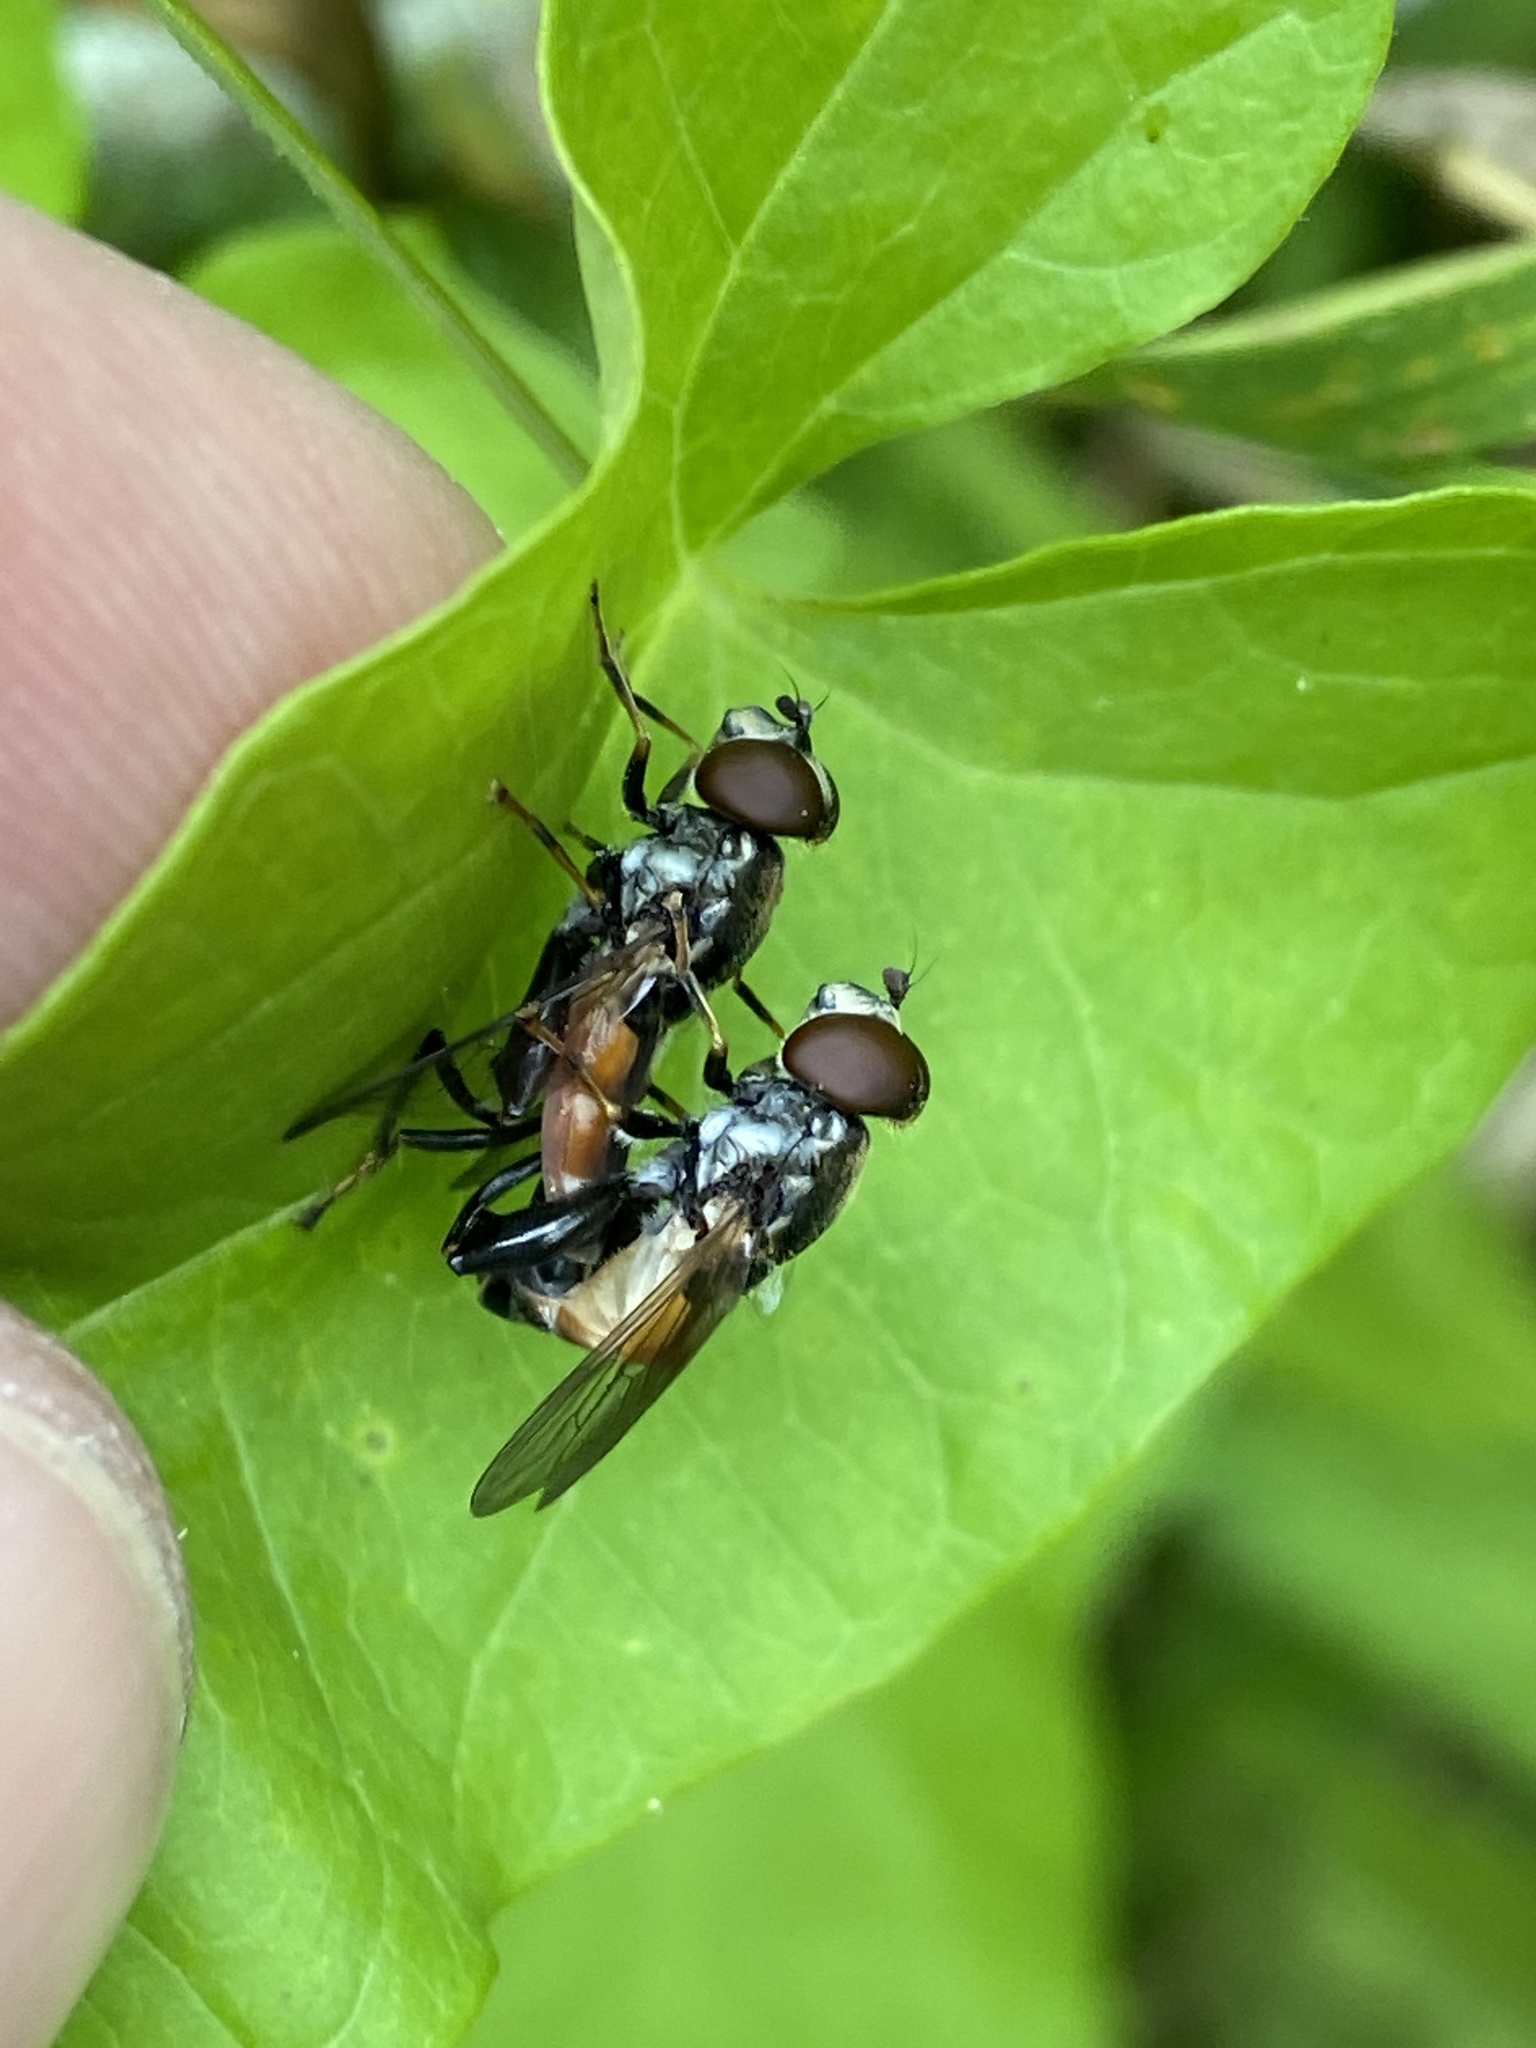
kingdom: Animalia
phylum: Arthropoda
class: Insecta
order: Diptera
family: Syrphidae
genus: Tropidia
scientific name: Tropidia scita
